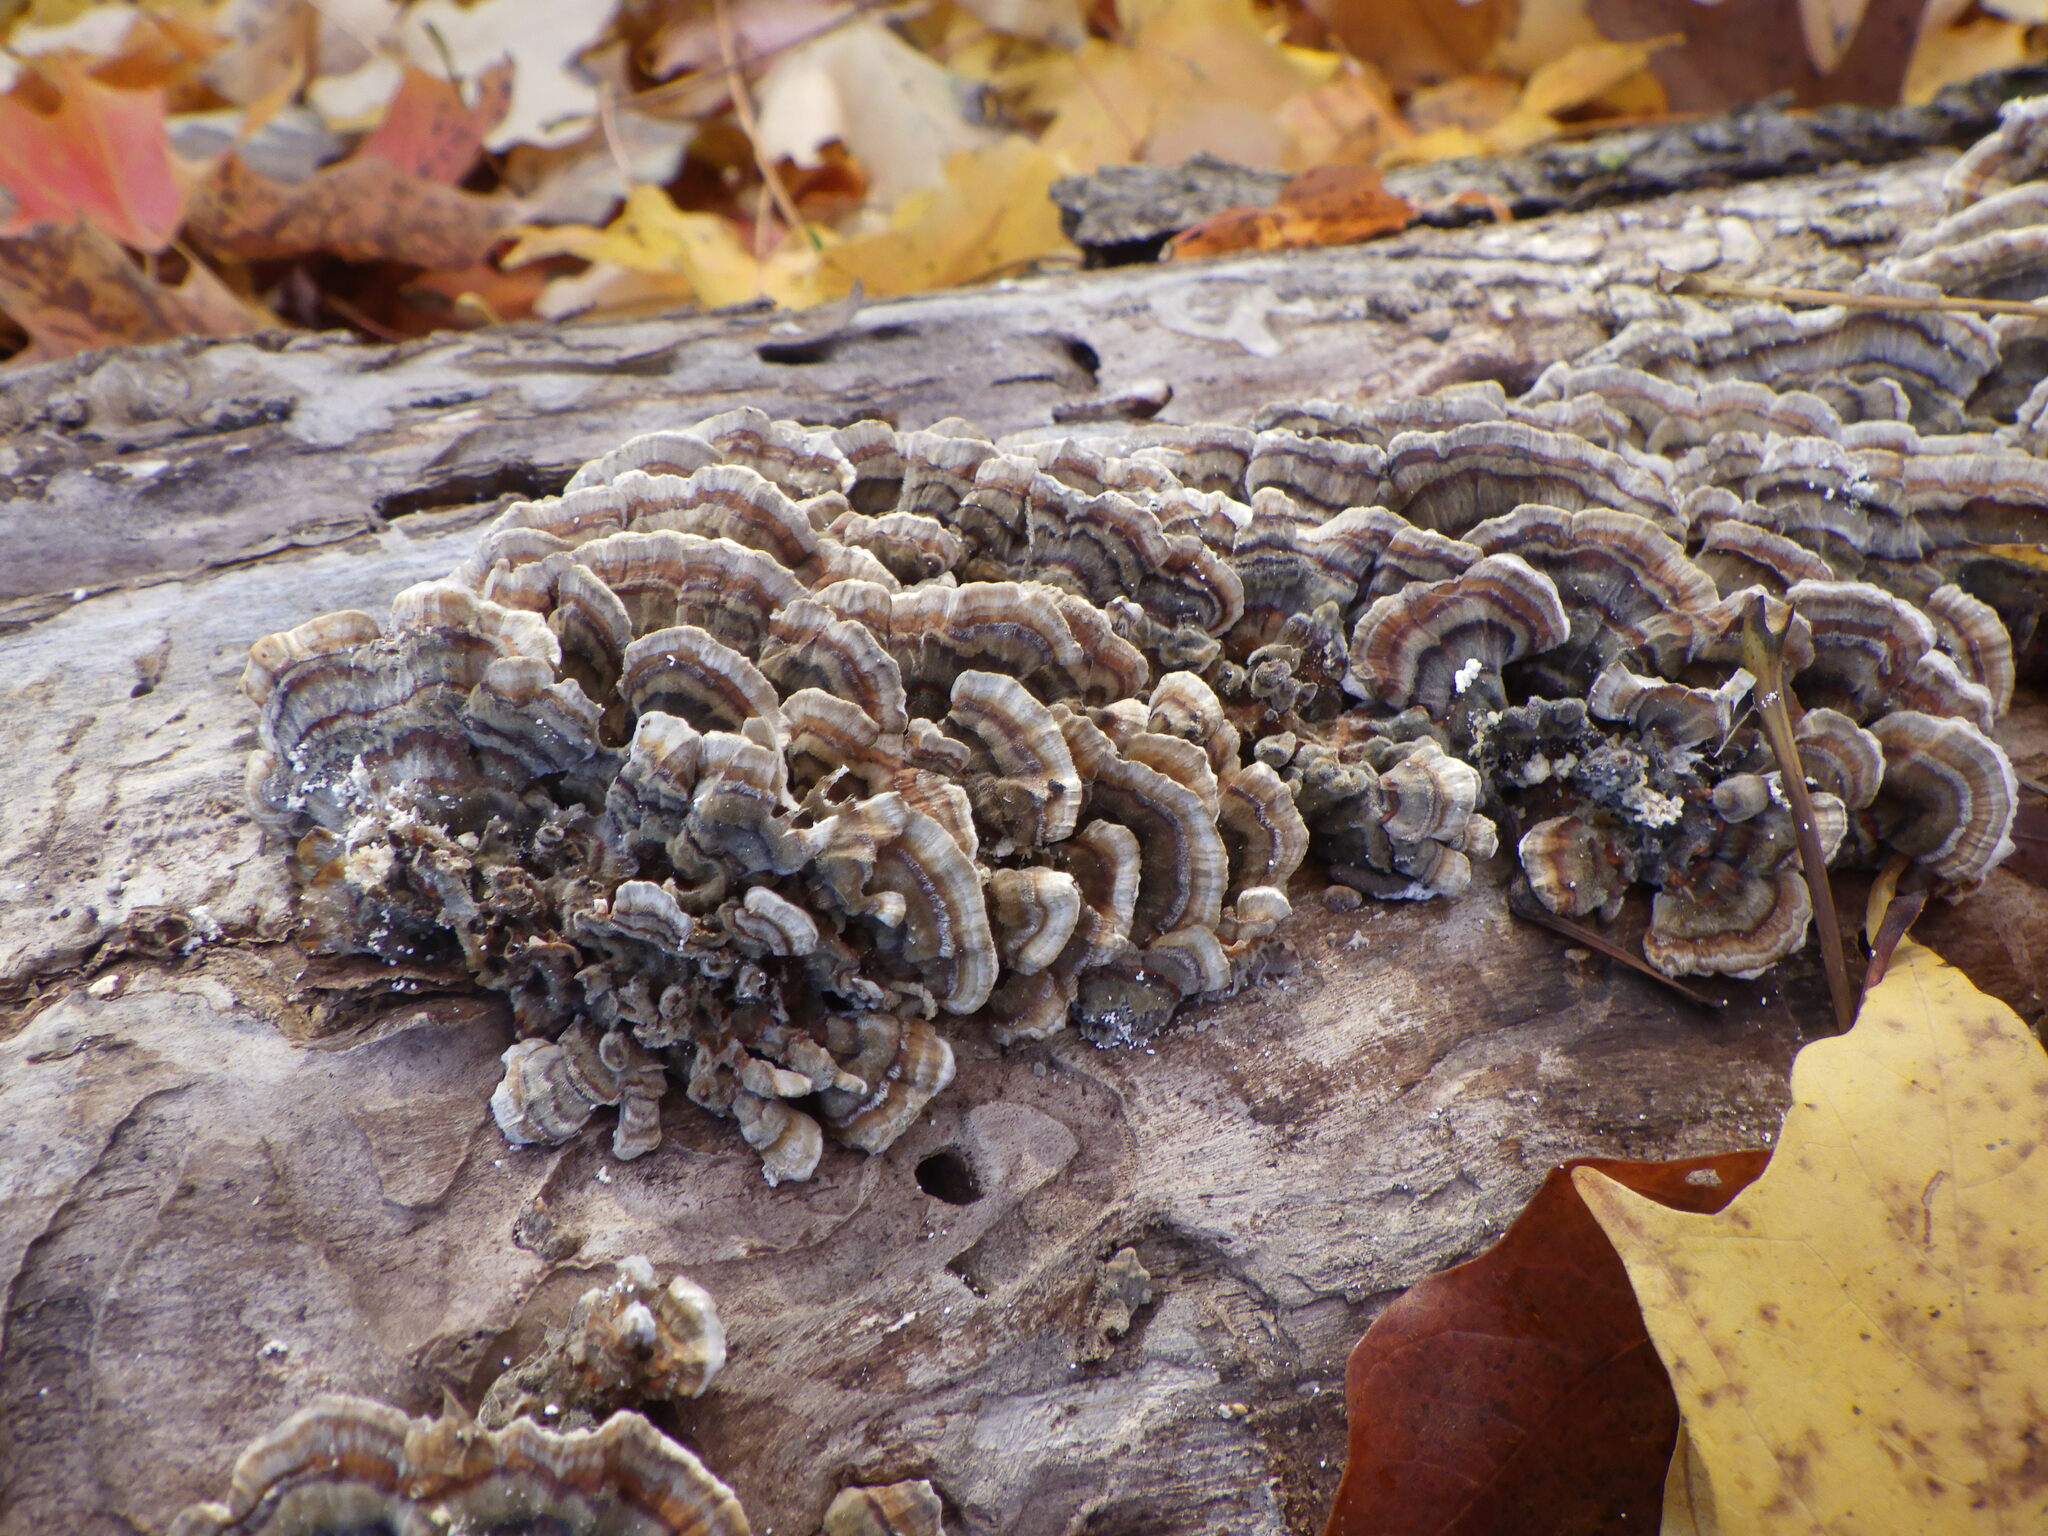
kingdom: Fungi
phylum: Basidiomycota
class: Agaricomycetes
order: Polyporales
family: Polyporaceae
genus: Trametes
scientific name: Trametes versicolor
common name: Turkeytail
